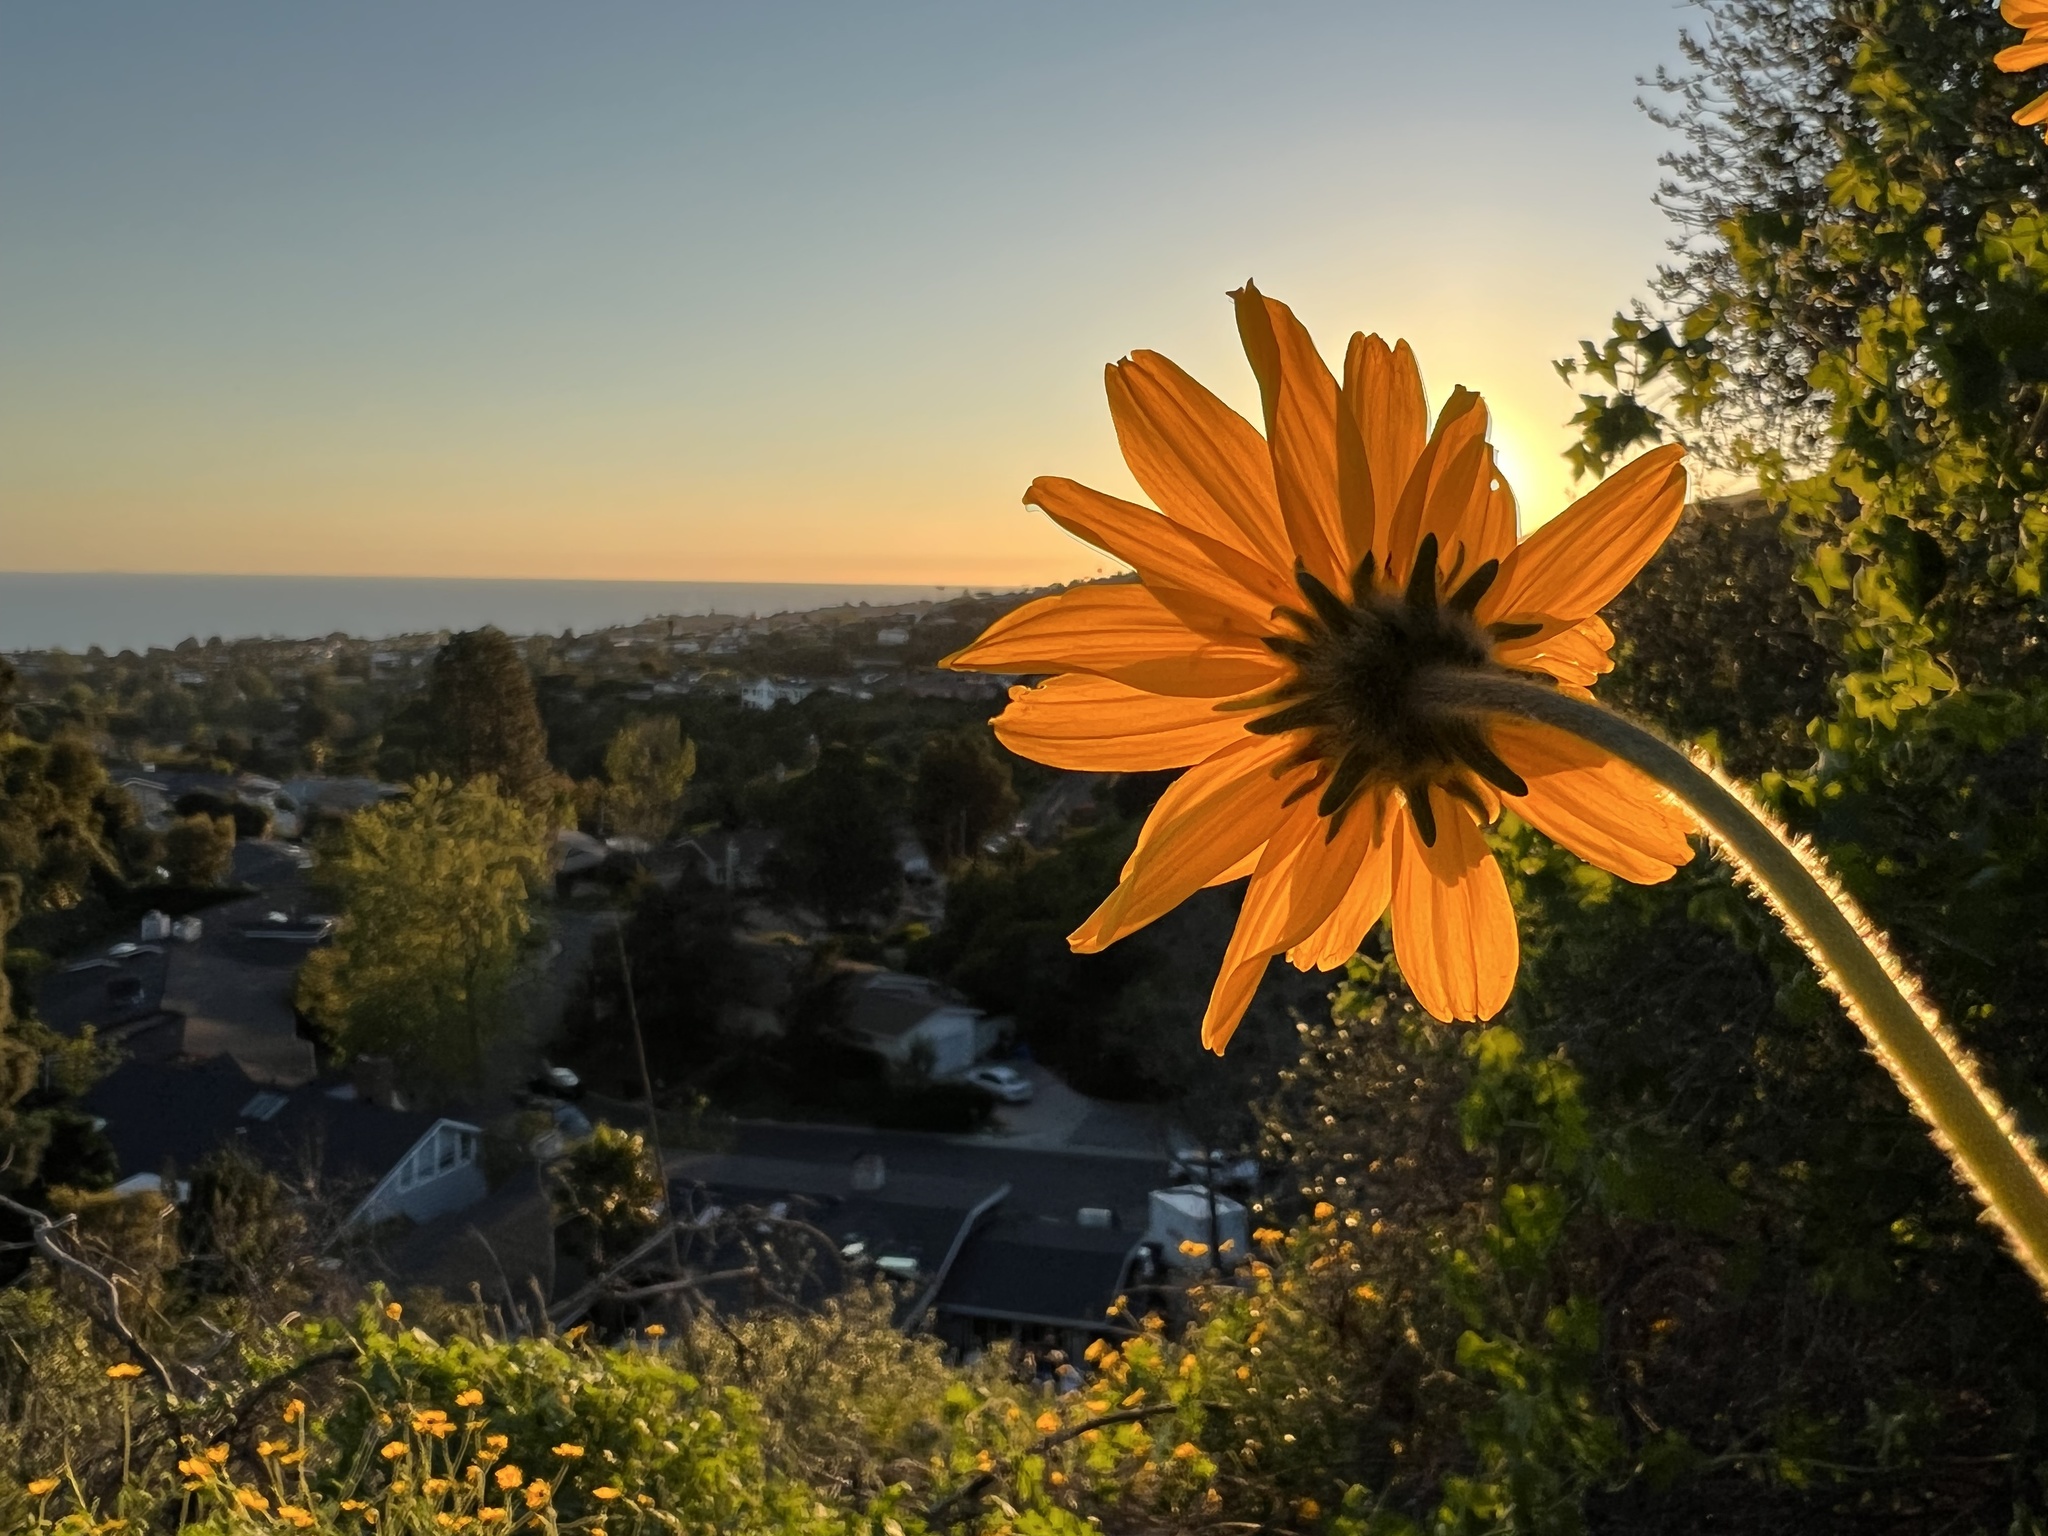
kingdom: Plantae
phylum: Tracheophyta
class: Magnoliopsida
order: Asterales
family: Asteraceae
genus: Encelia
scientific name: Encelia californica
